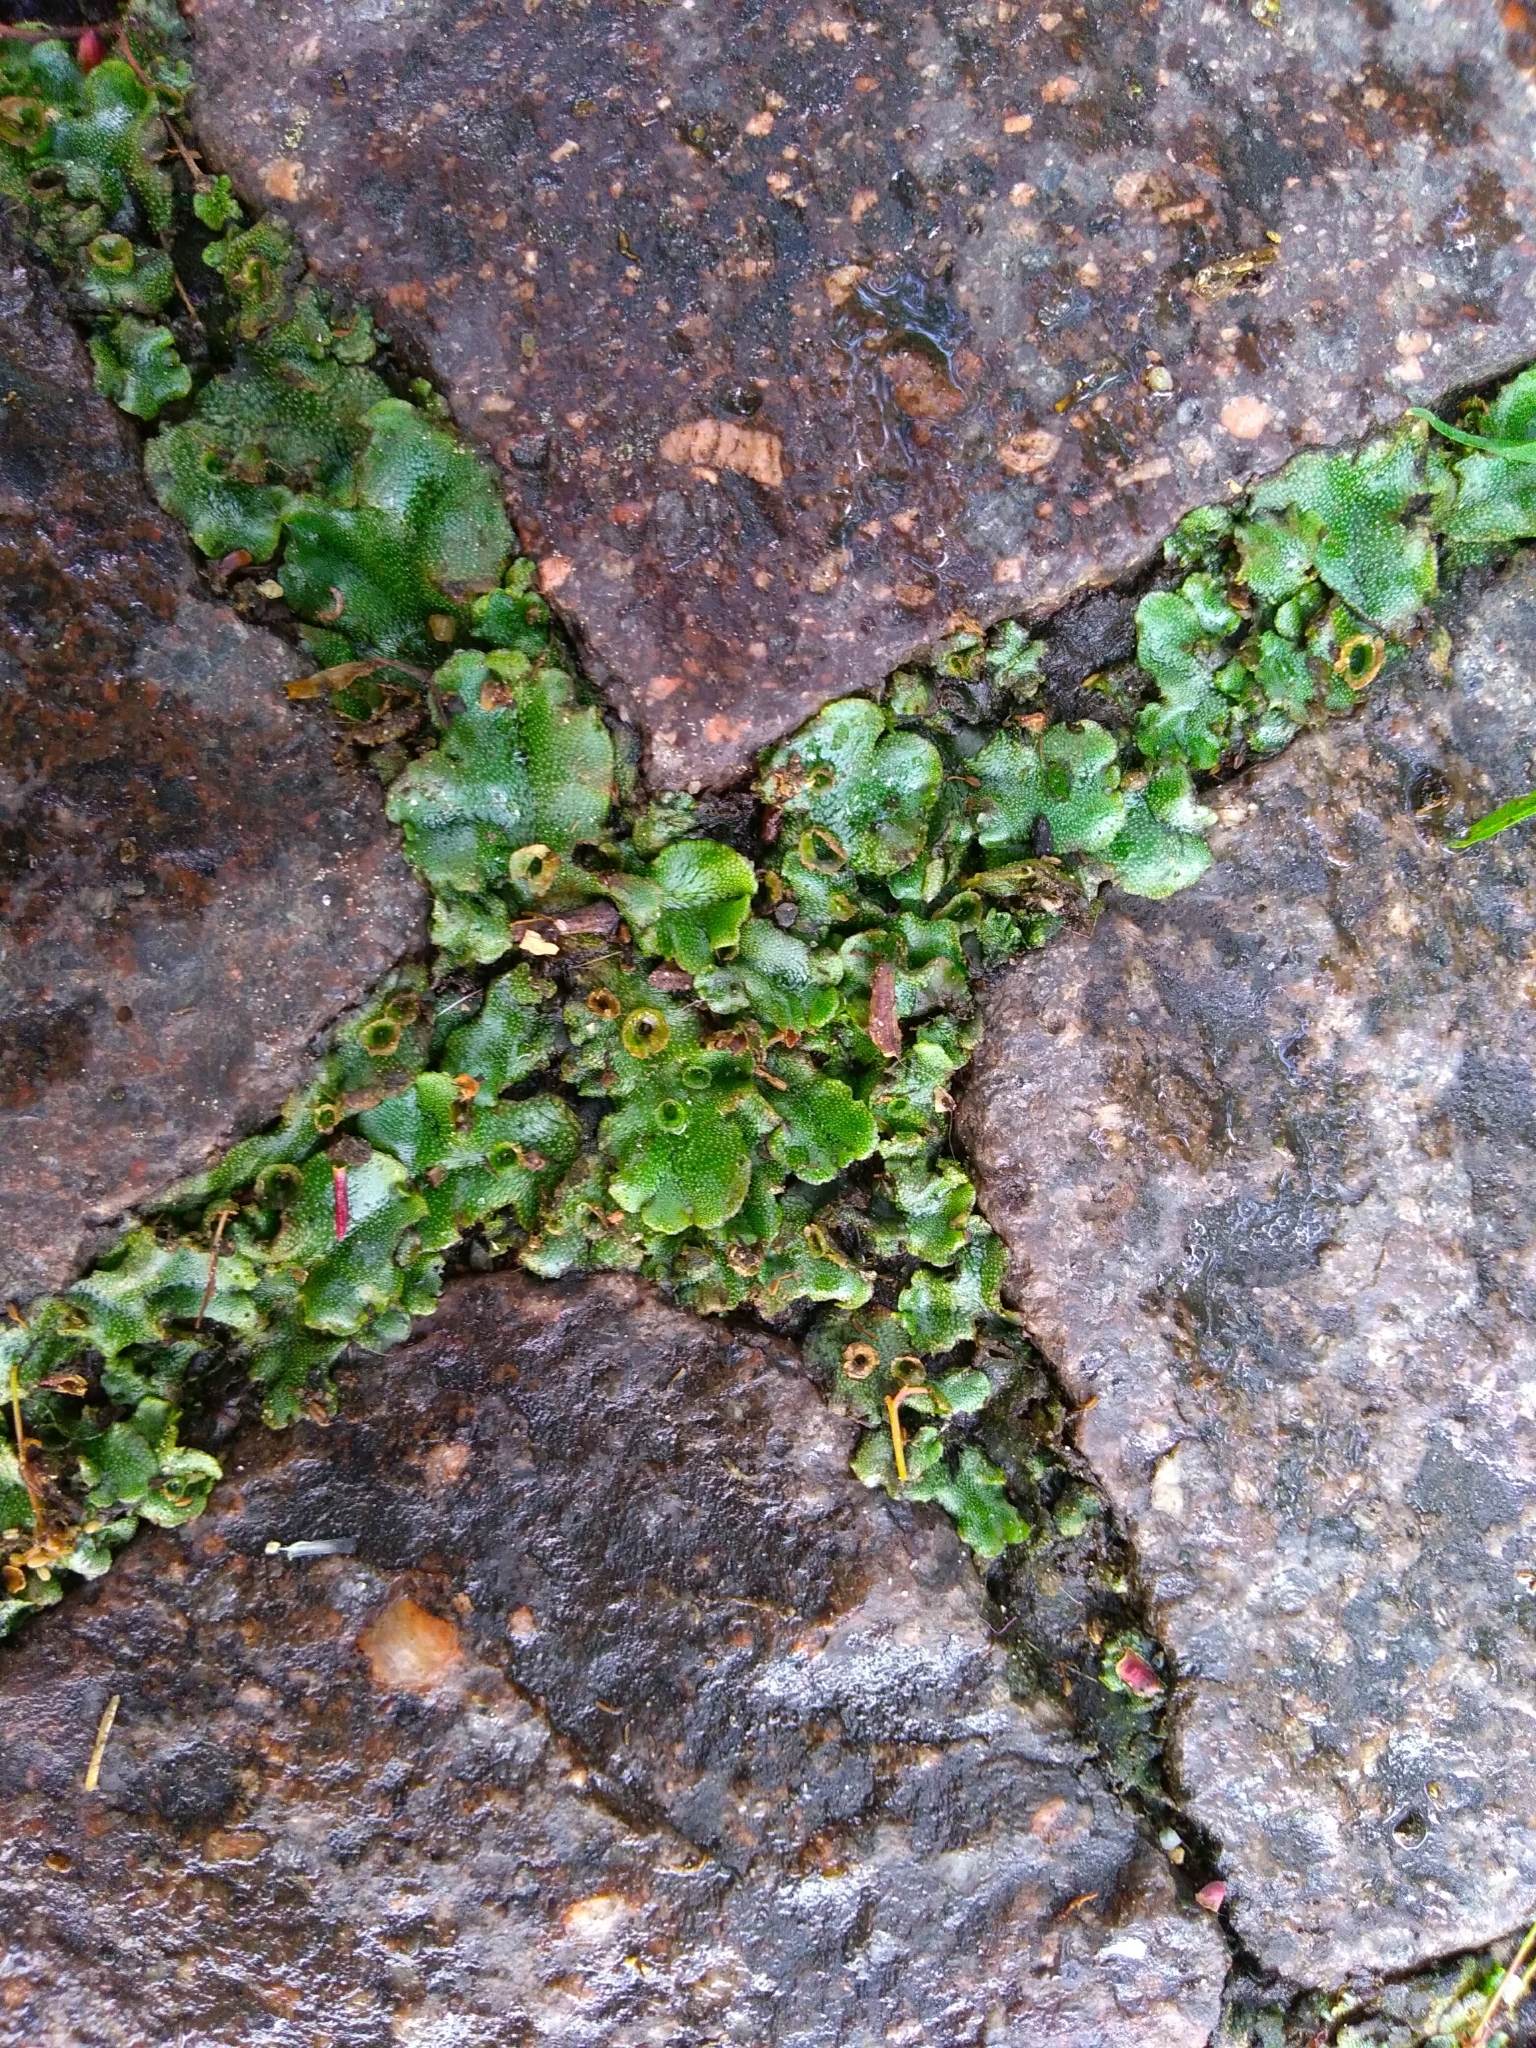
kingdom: Plantae
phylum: Marchantiophyta
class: Marchantiopsida
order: Marchantiales
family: Marchantiaceae
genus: Marchantia
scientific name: Marchantia polymorpha
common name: Common liverwort
